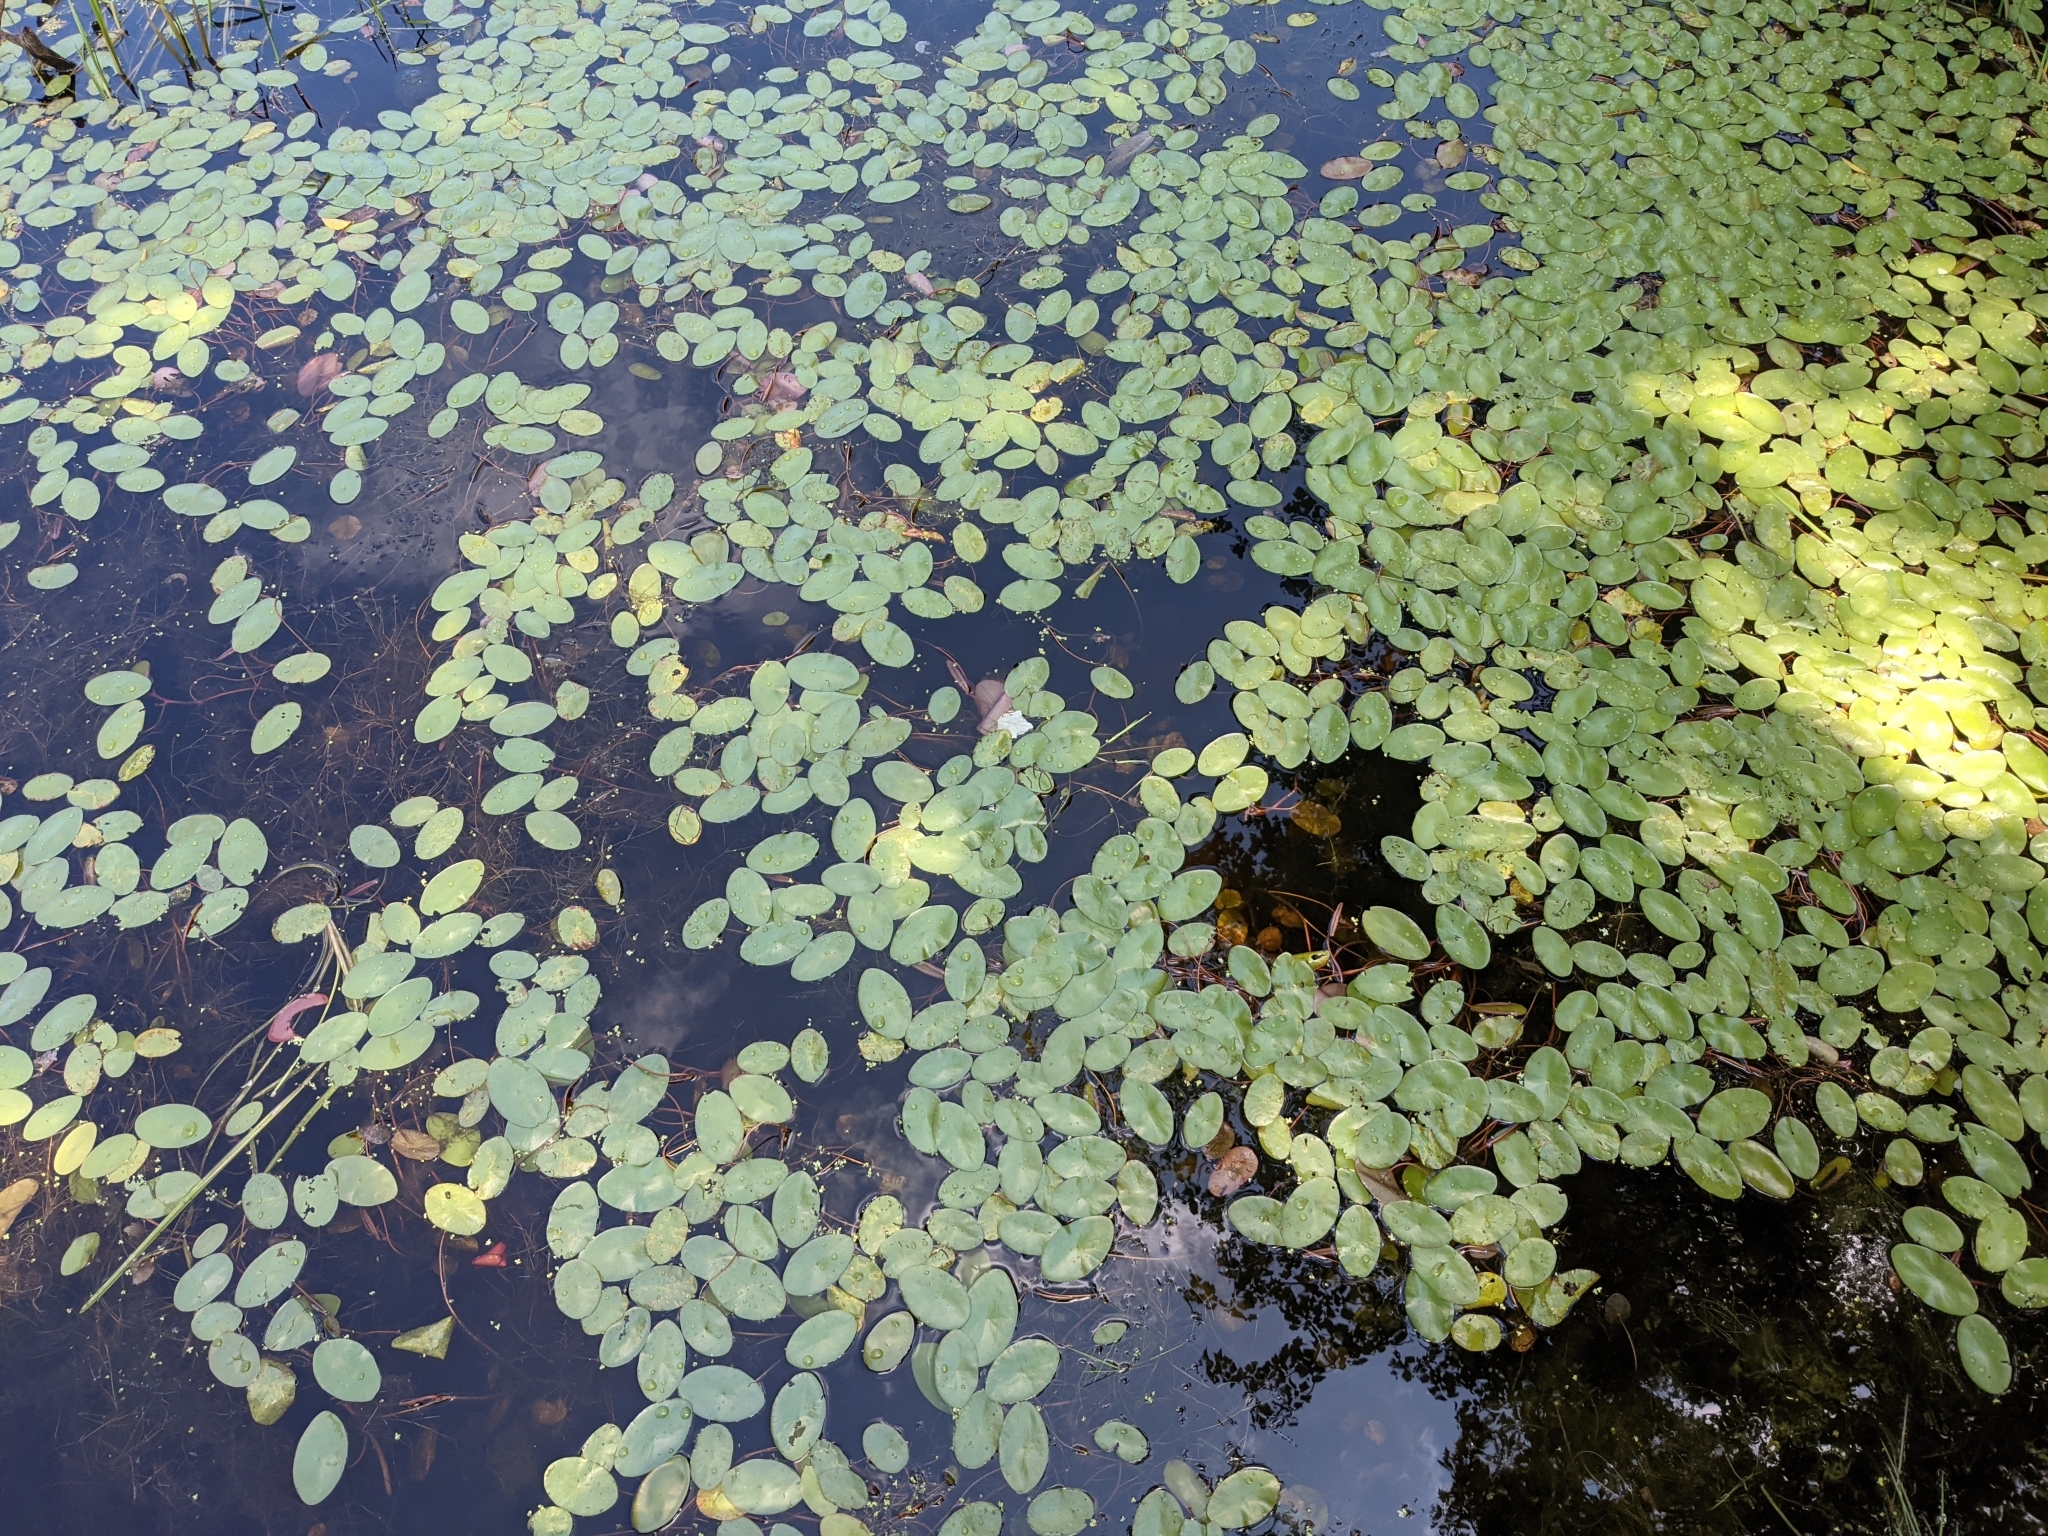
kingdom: Plantae
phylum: Tracheophyta
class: Magnoliopsida
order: Nymphaeales
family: Cabombaceae
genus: Brasenia
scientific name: Brasenia schreberi
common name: Water-shield
